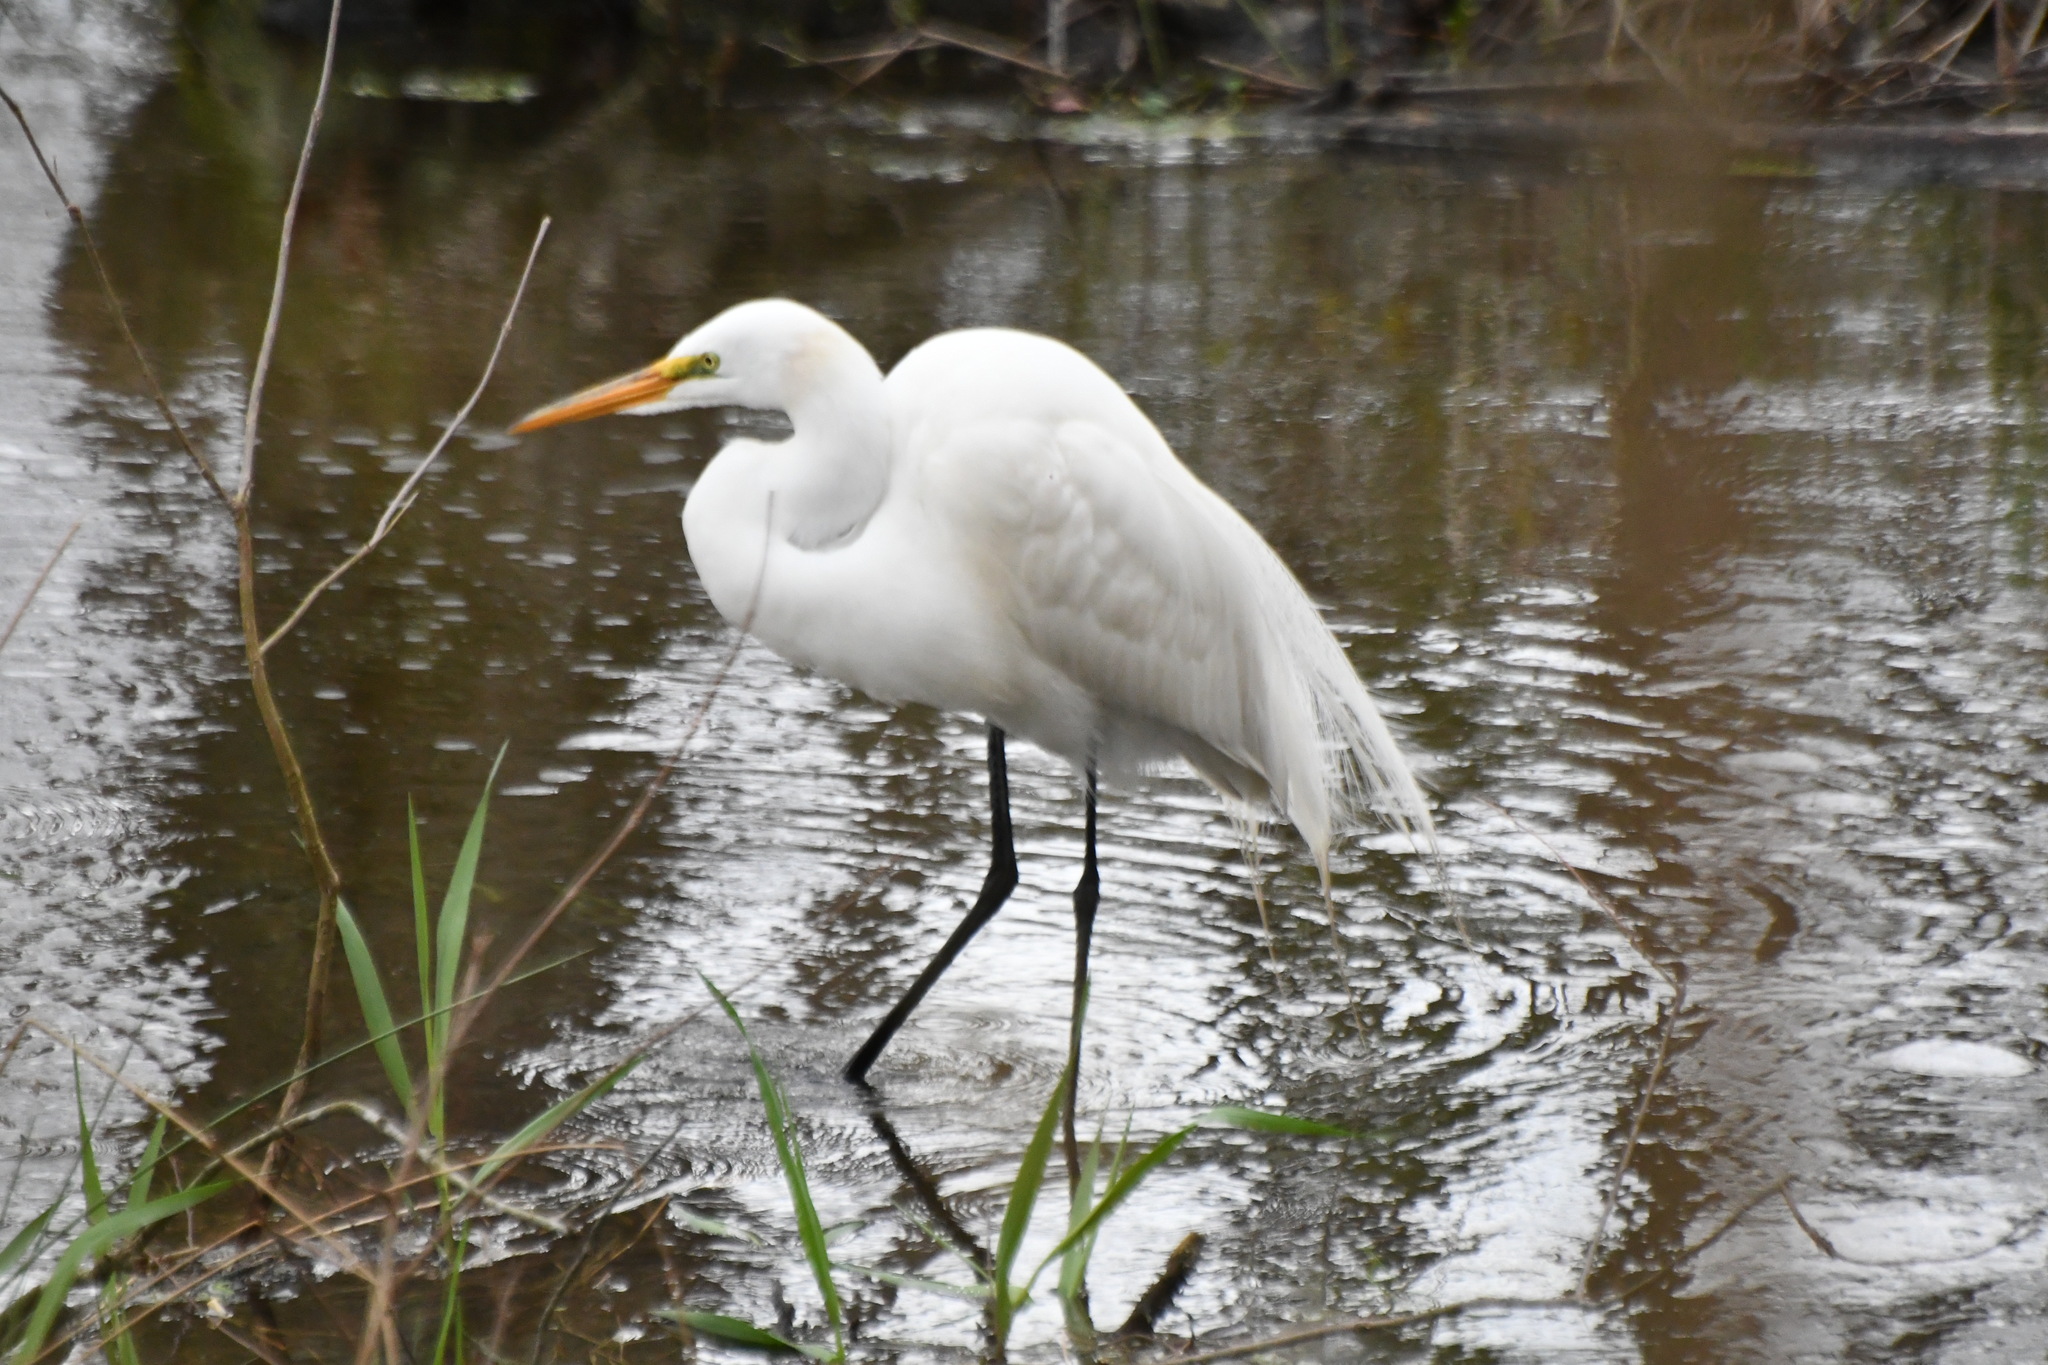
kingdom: Animalia
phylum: Chordata
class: Aves
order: Pelecaniformes
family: Ardeidae
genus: Ardea
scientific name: Ardea alba
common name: Great egret
